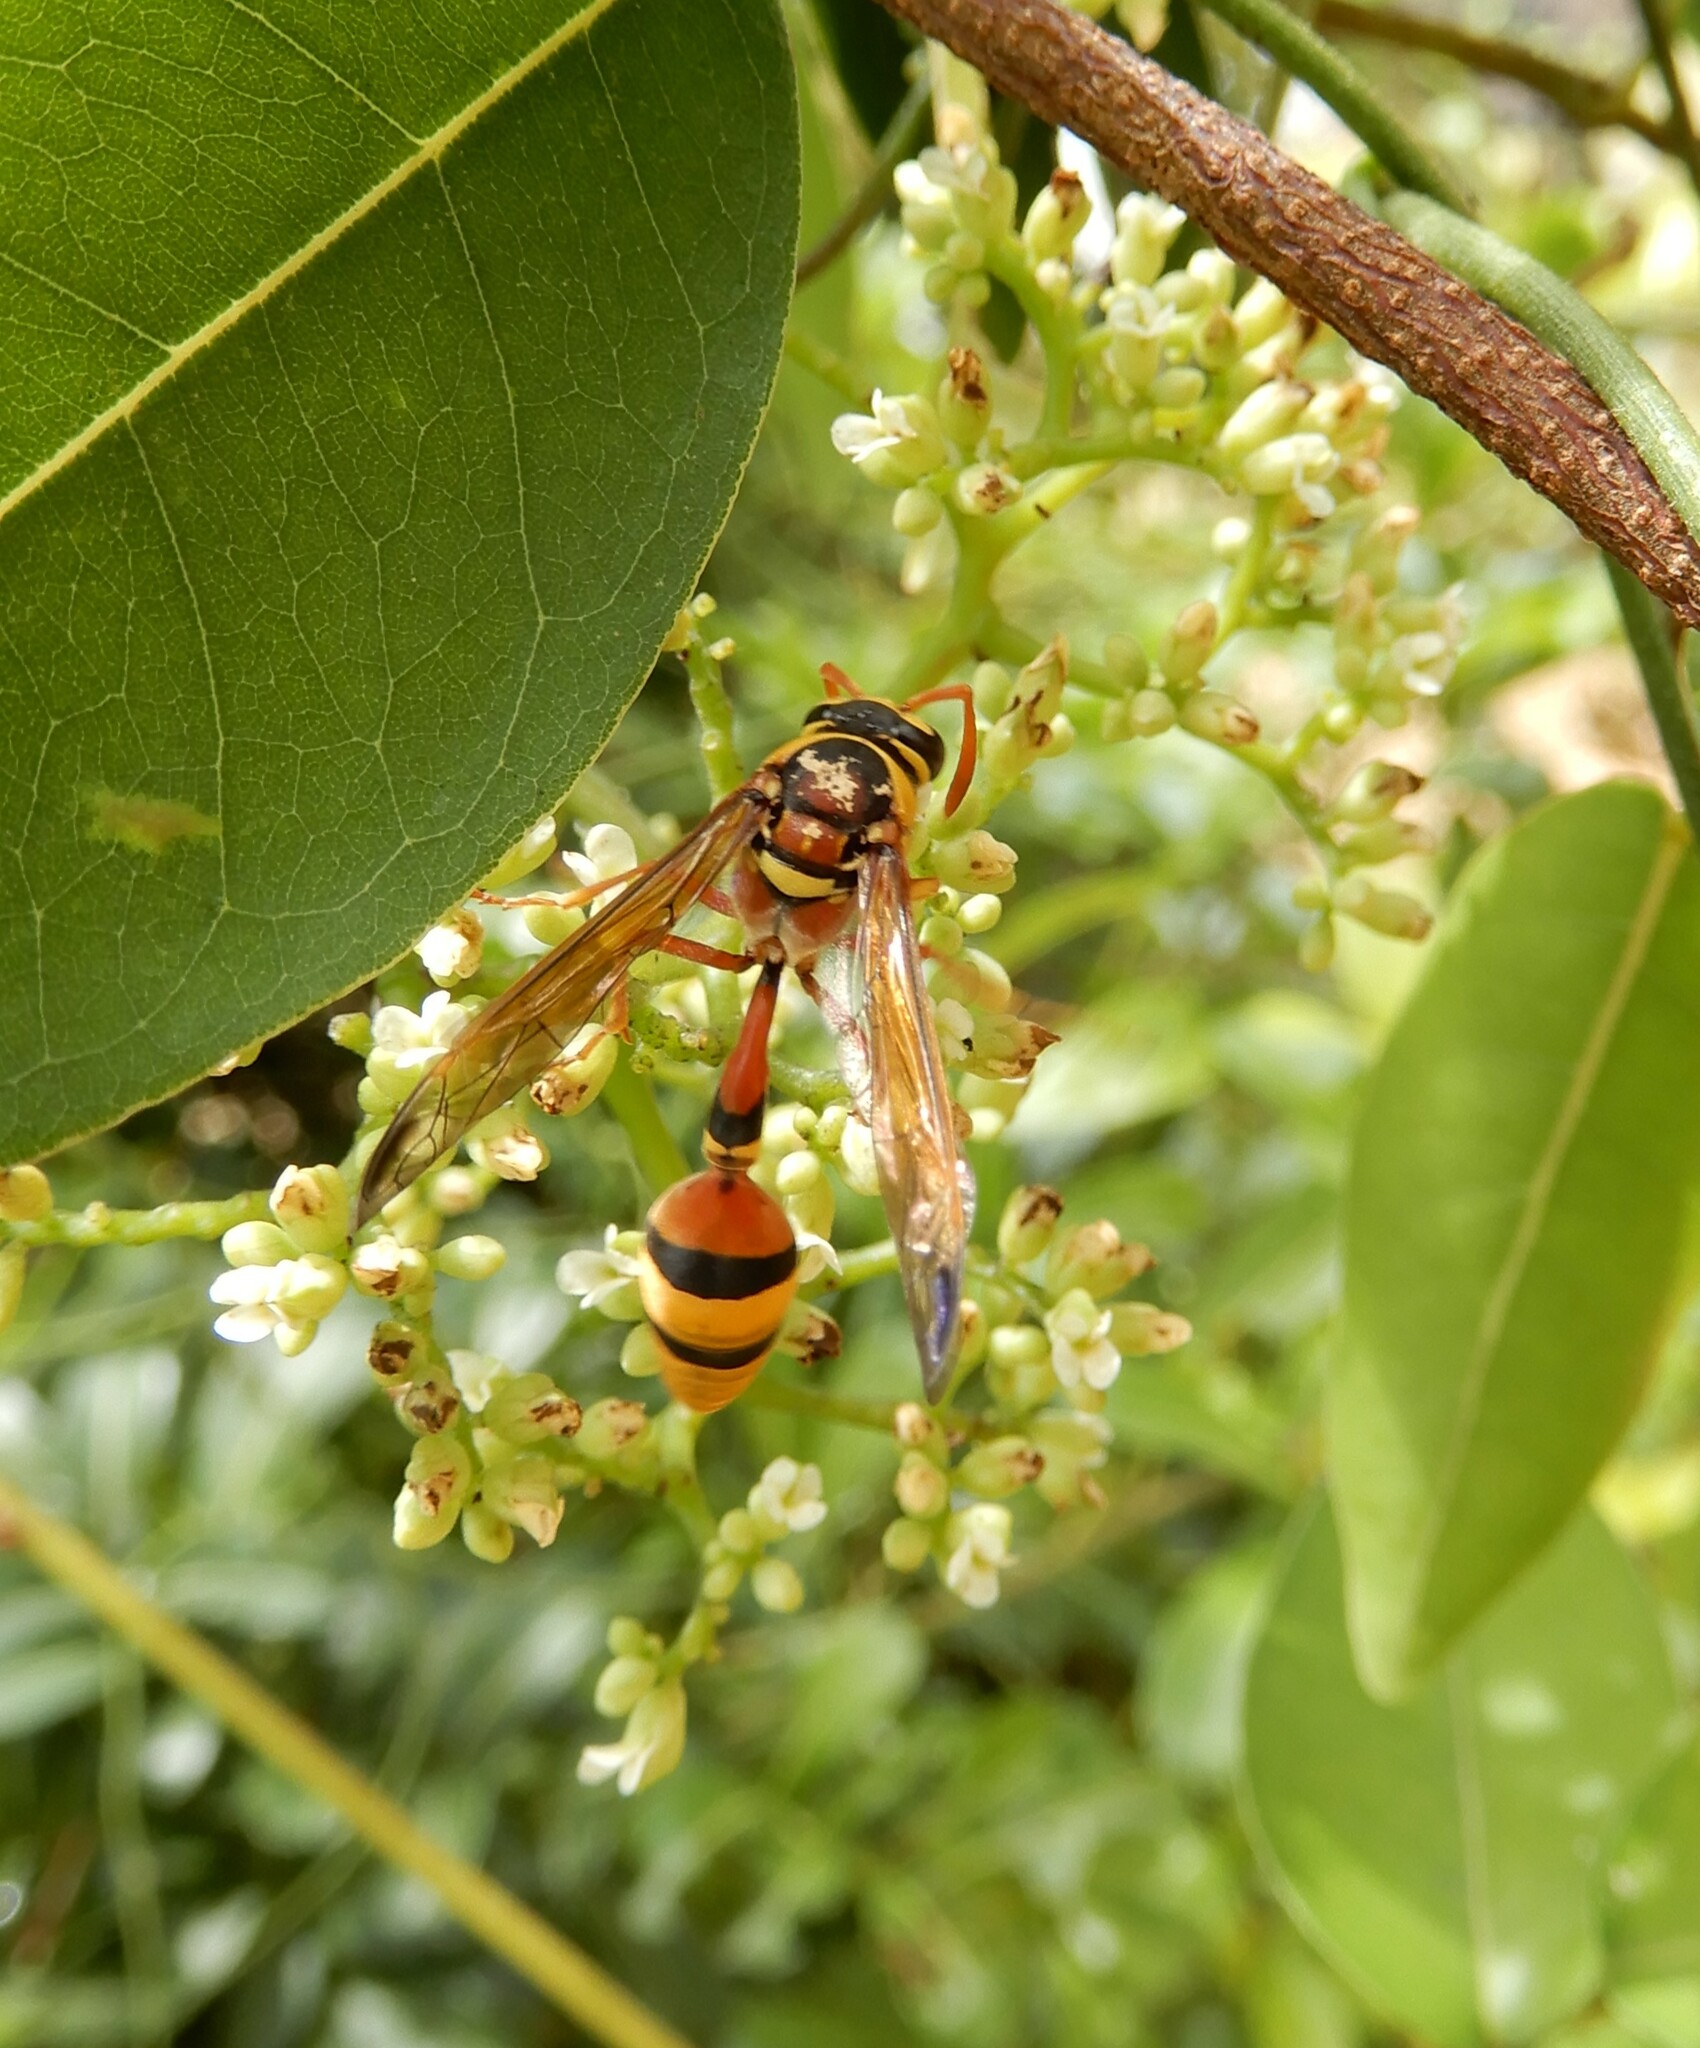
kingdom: Animalia
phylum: Arthropoda
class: Insecta
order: Hymenoptera
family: Eumenidae
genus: Delta
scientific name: Delta esuriens
